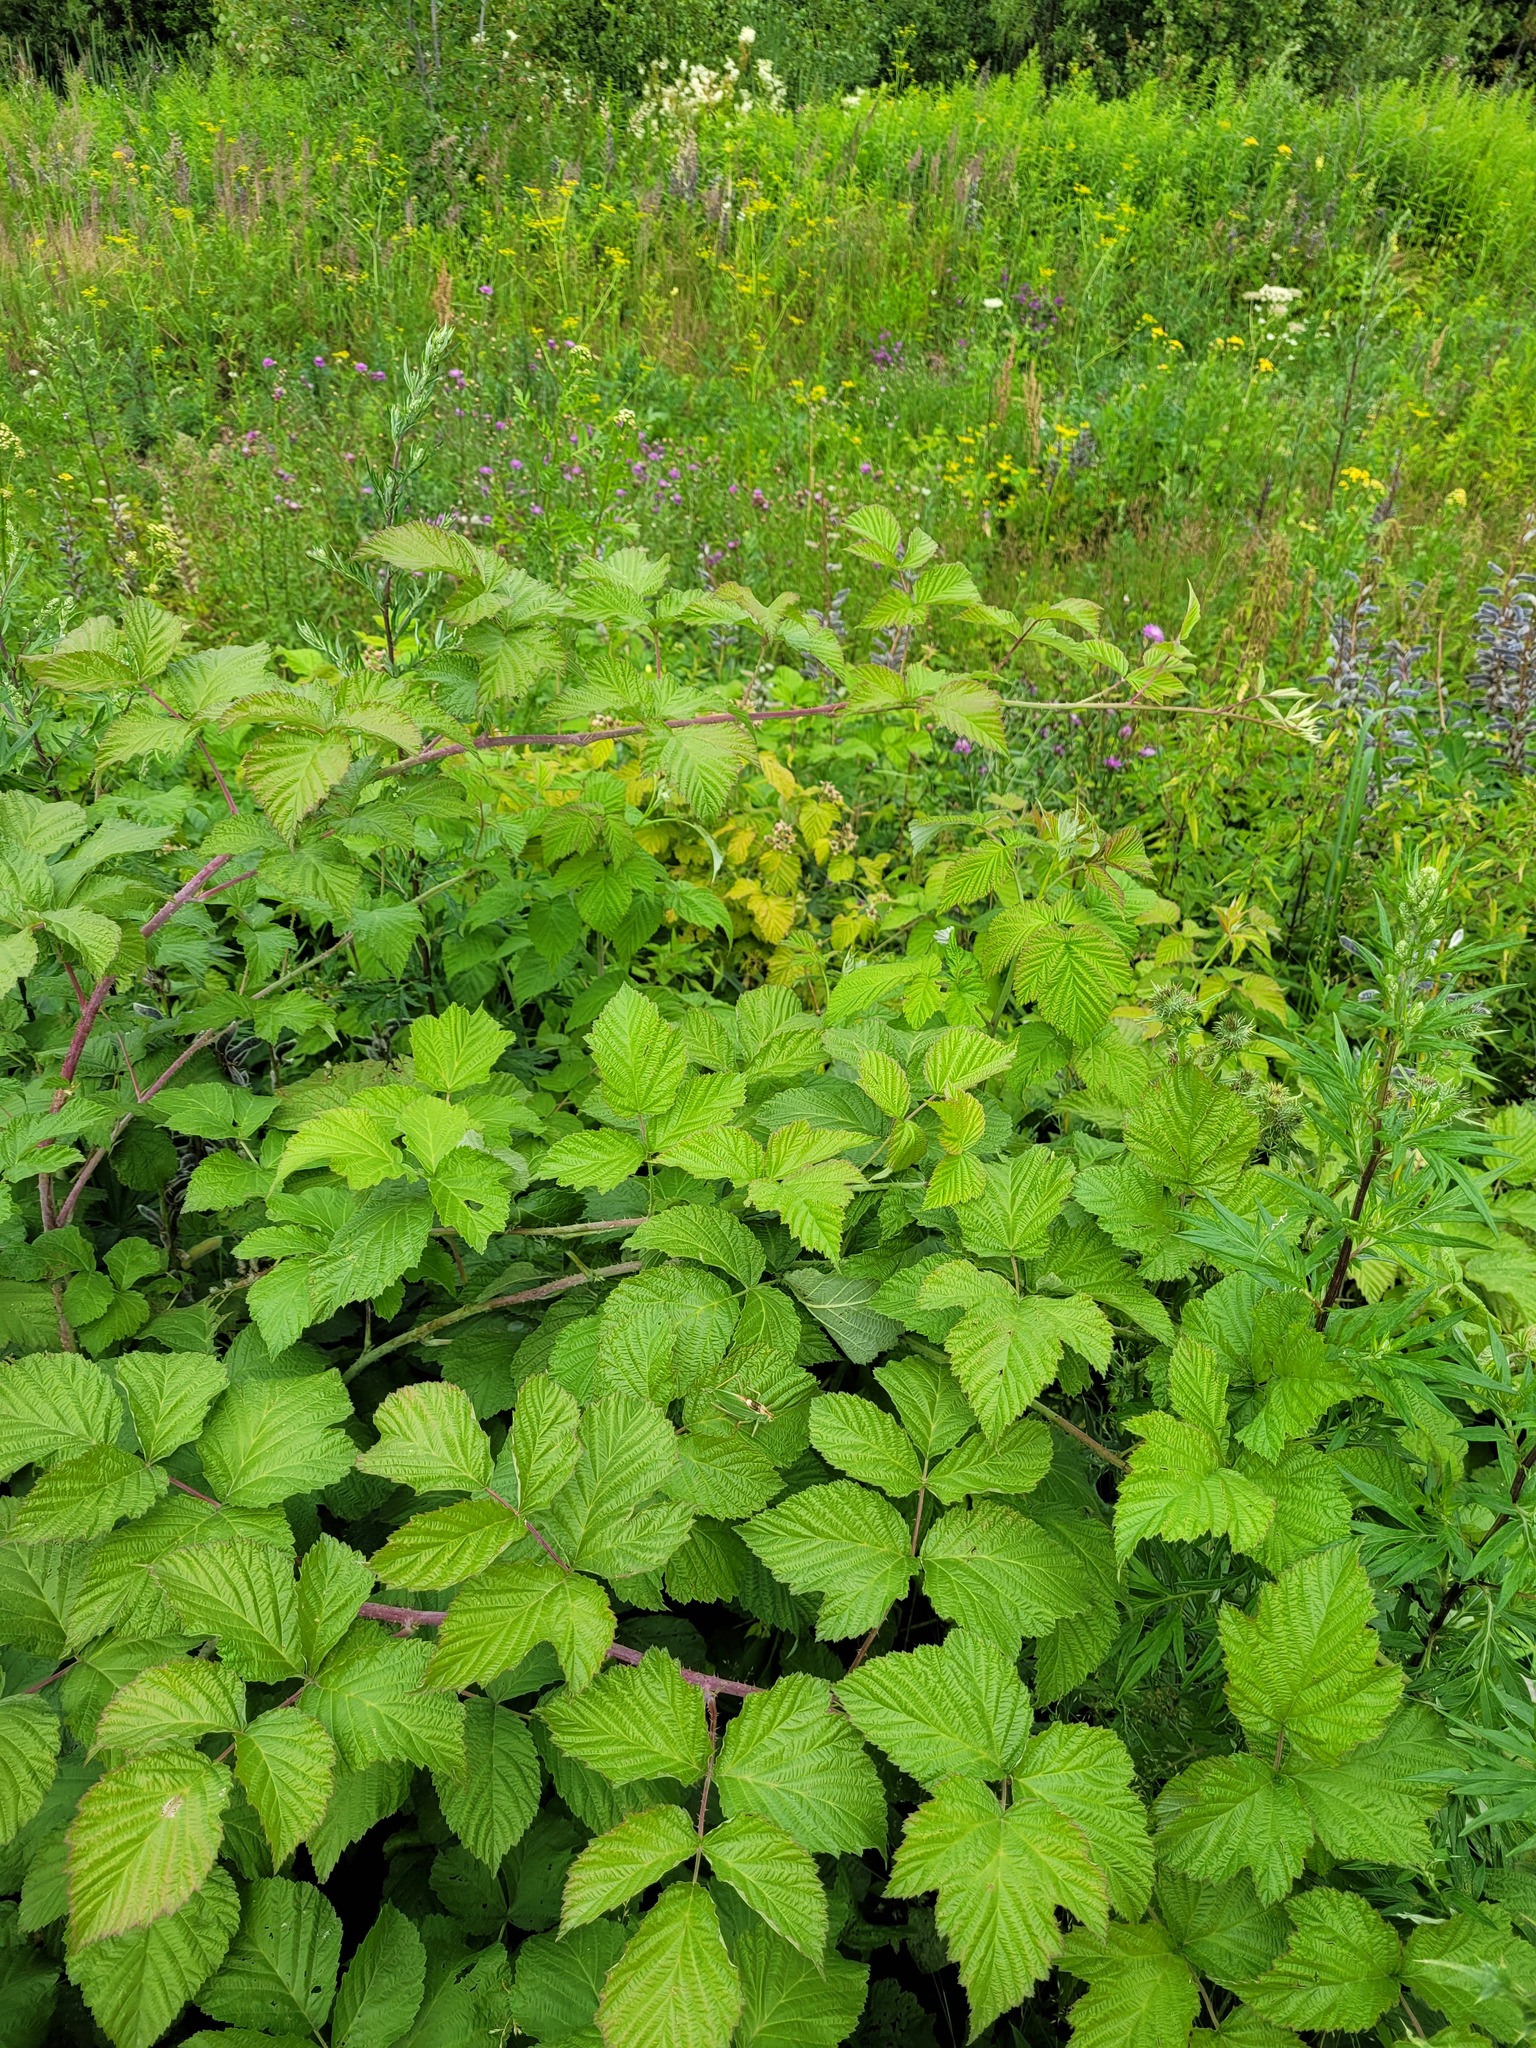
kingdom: Plantae
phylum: Tracheophyta
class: Magnoliopsida
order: Rosales
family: Rosaceae
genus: Rubus
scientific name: Rubus idaeoides
